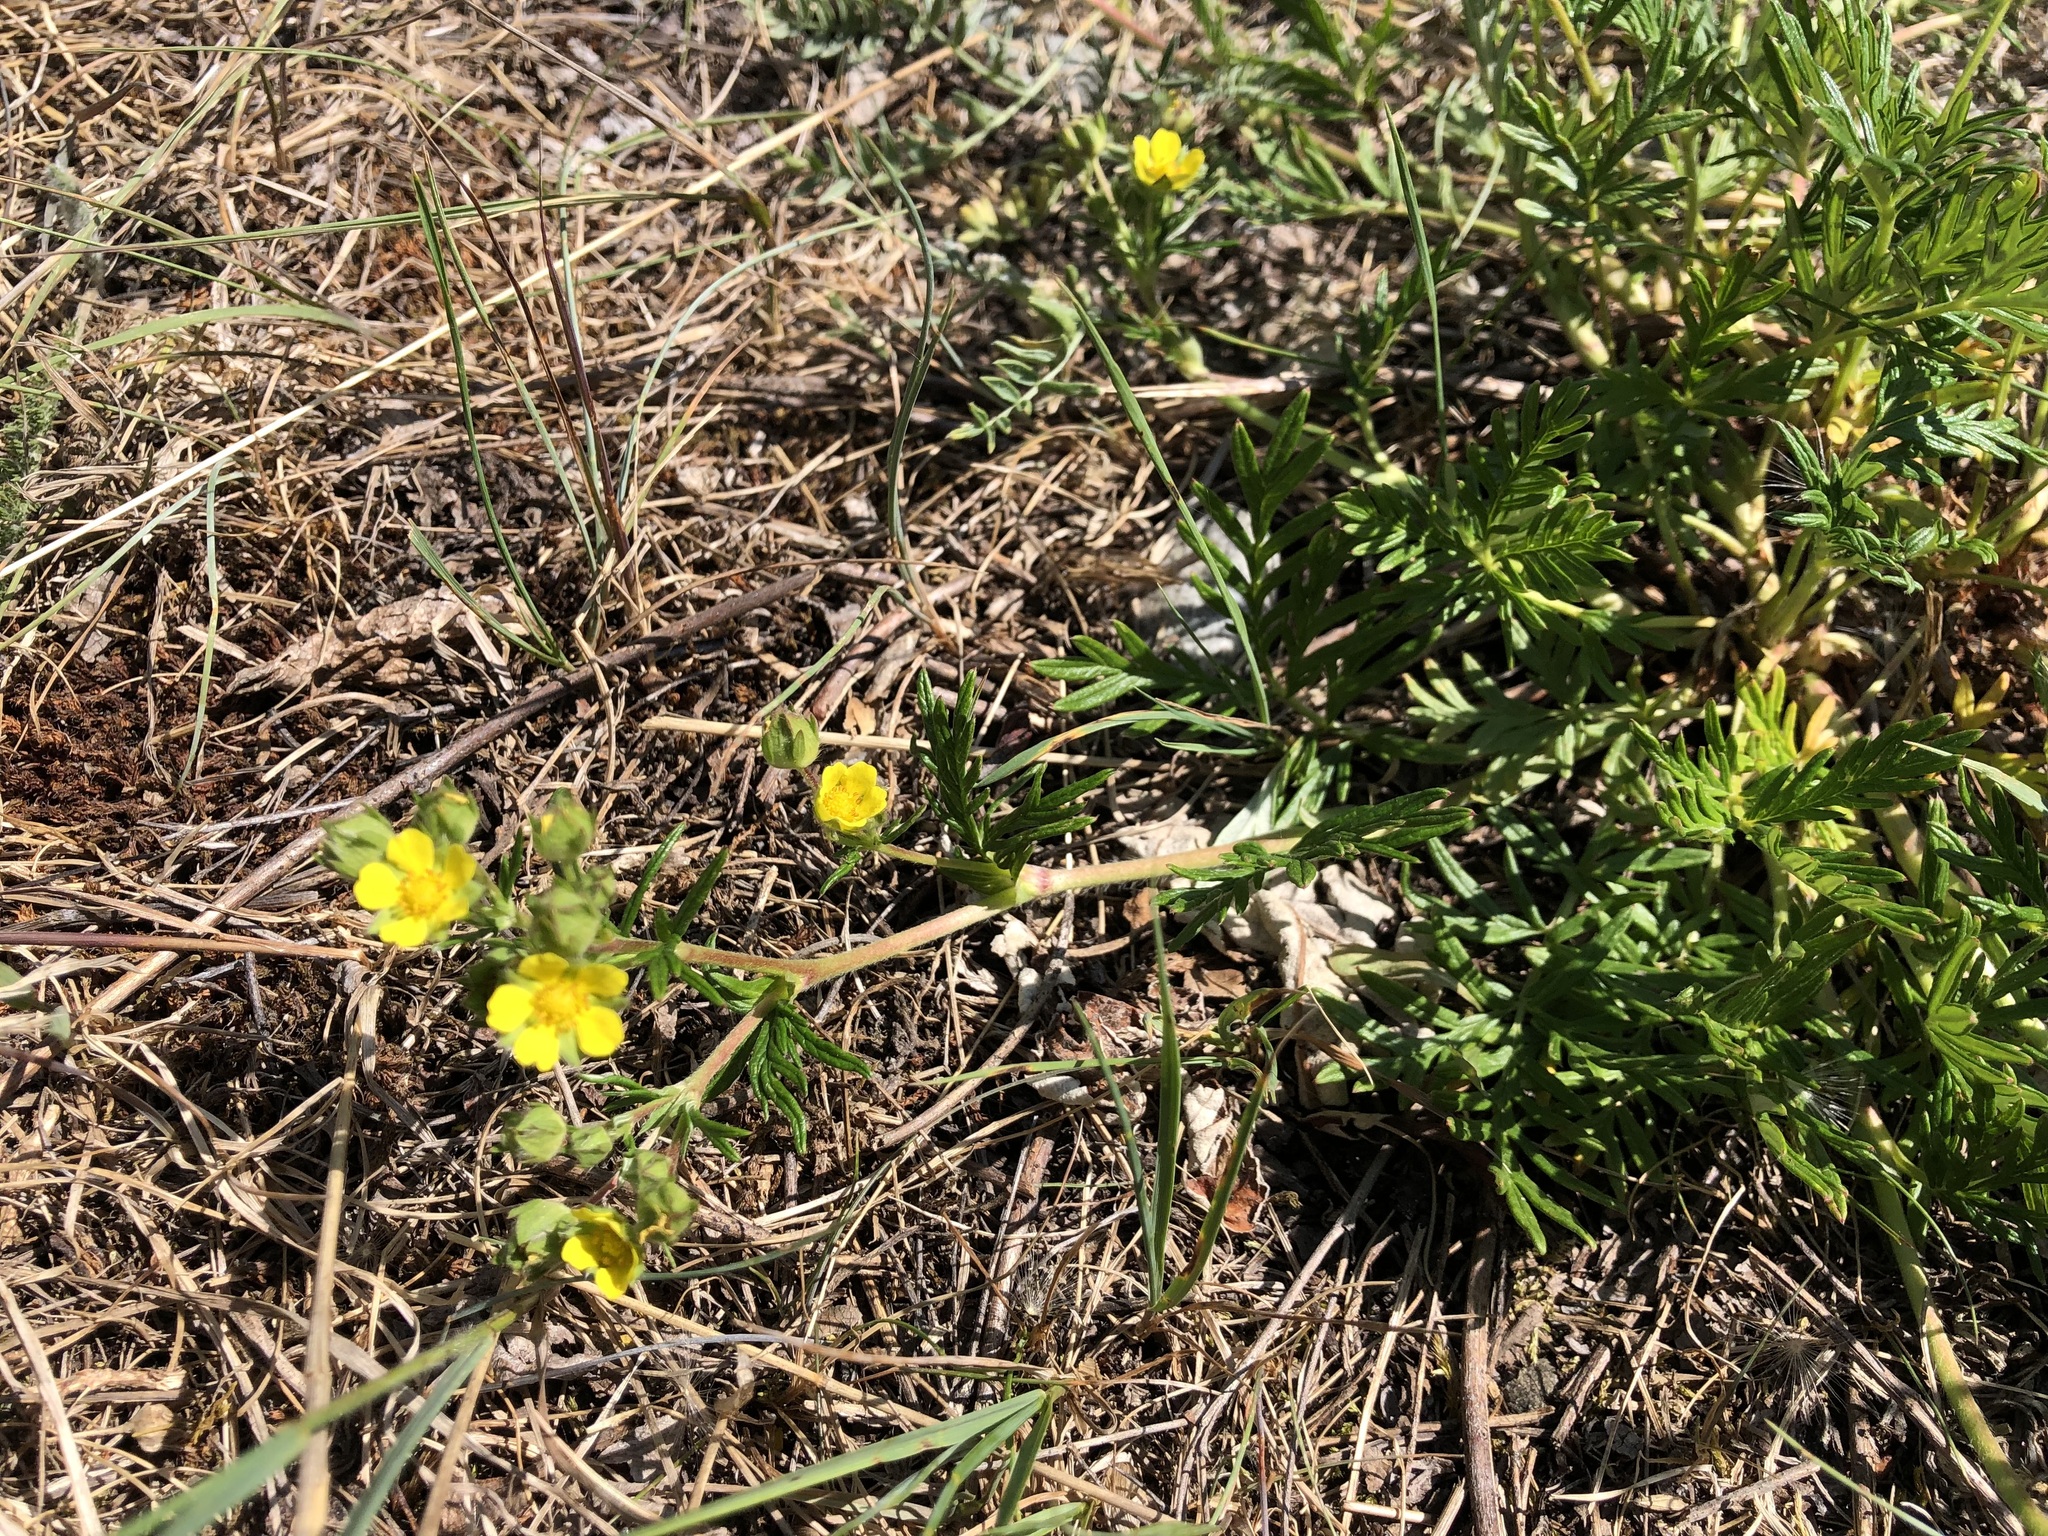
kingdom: Plantae
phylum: Tracheophyta
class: Magnoliopsida
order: Rosales
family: Rosaceae
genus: Potentilla
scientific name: Potentilla bimundorum
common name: Cut-leaved cinquefoil
